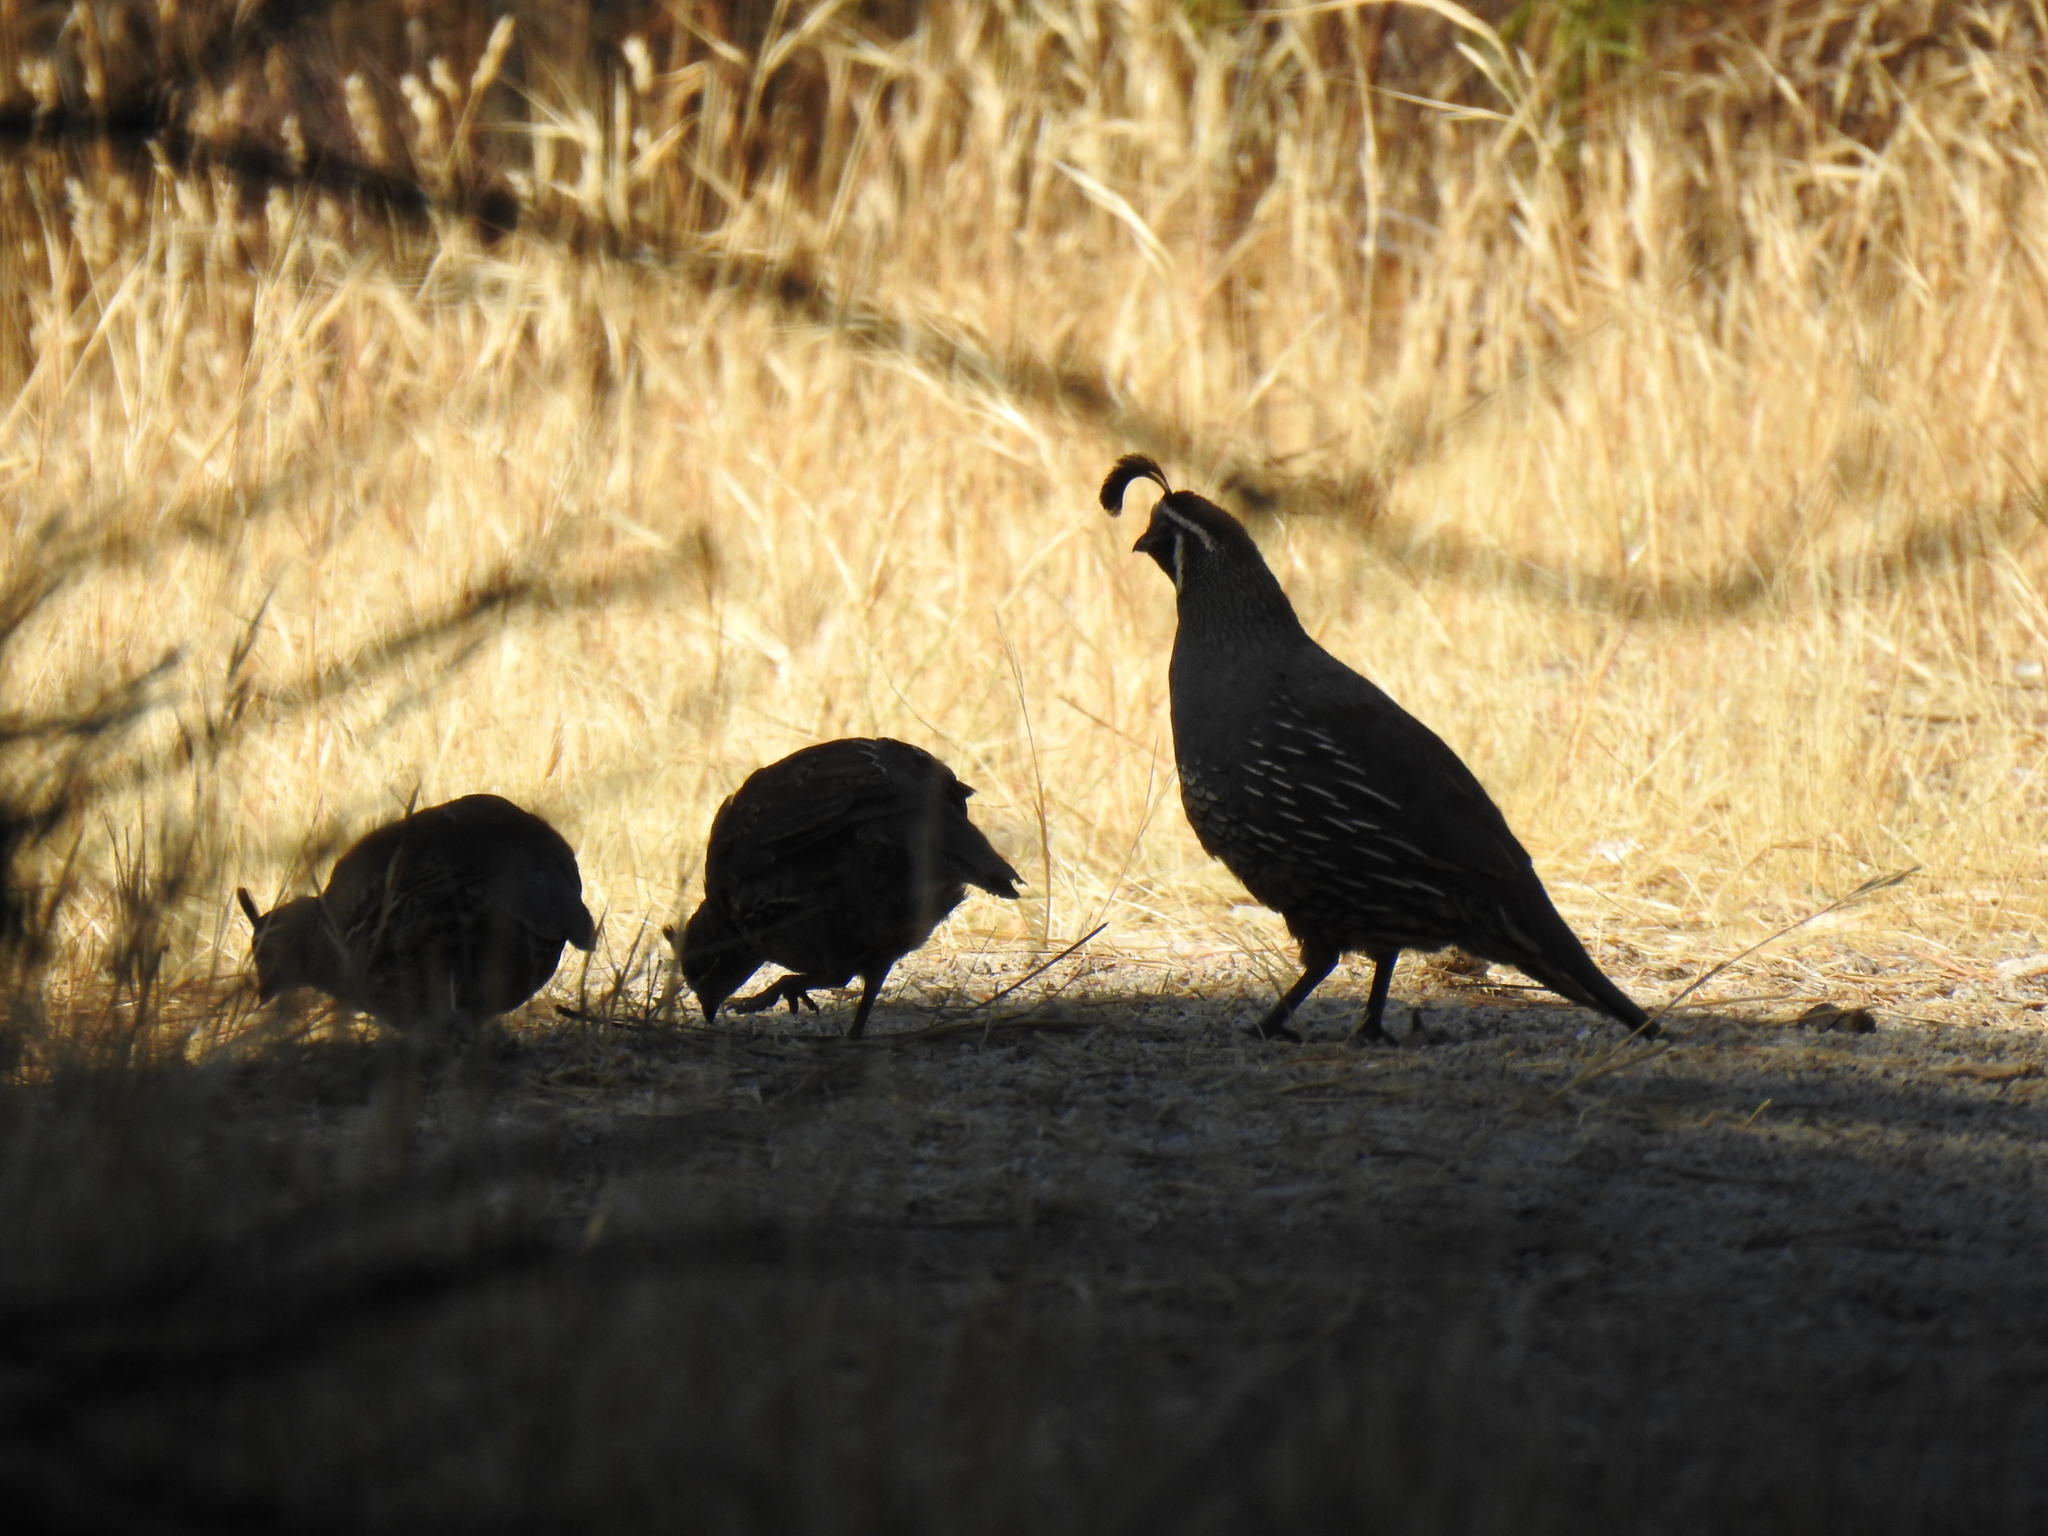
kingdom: Animalia
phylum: Chordata
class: Aves
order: Galliformes
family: Odontophoridae
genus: Callipepla
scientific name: Callipepla californica
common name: California quail
